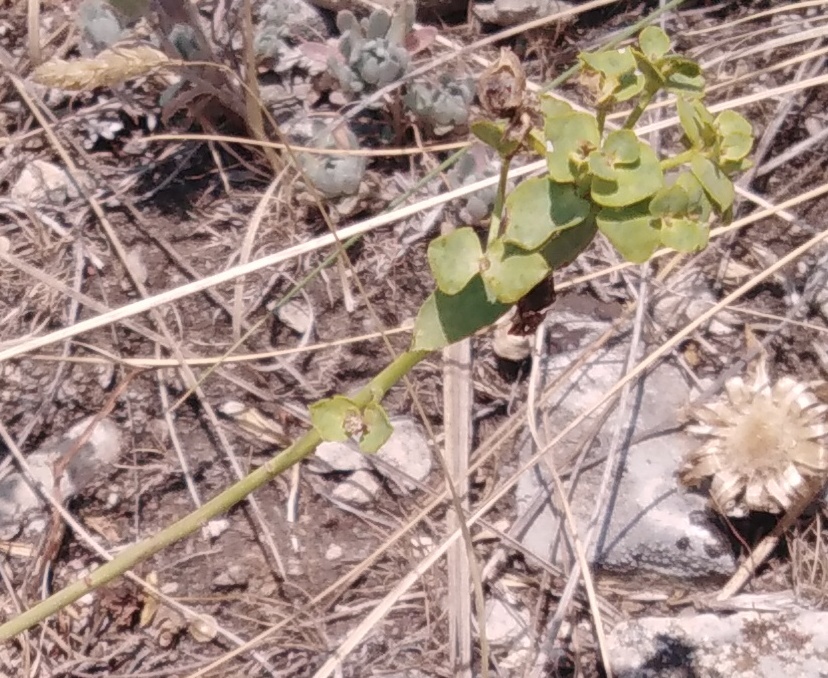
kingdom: Plantae
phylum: Tracheophyta
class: Magnoliopsida
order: Malpighiales
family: Euphorbiaceae
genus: Euphorbia
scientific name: Euphorbia seguieriana
